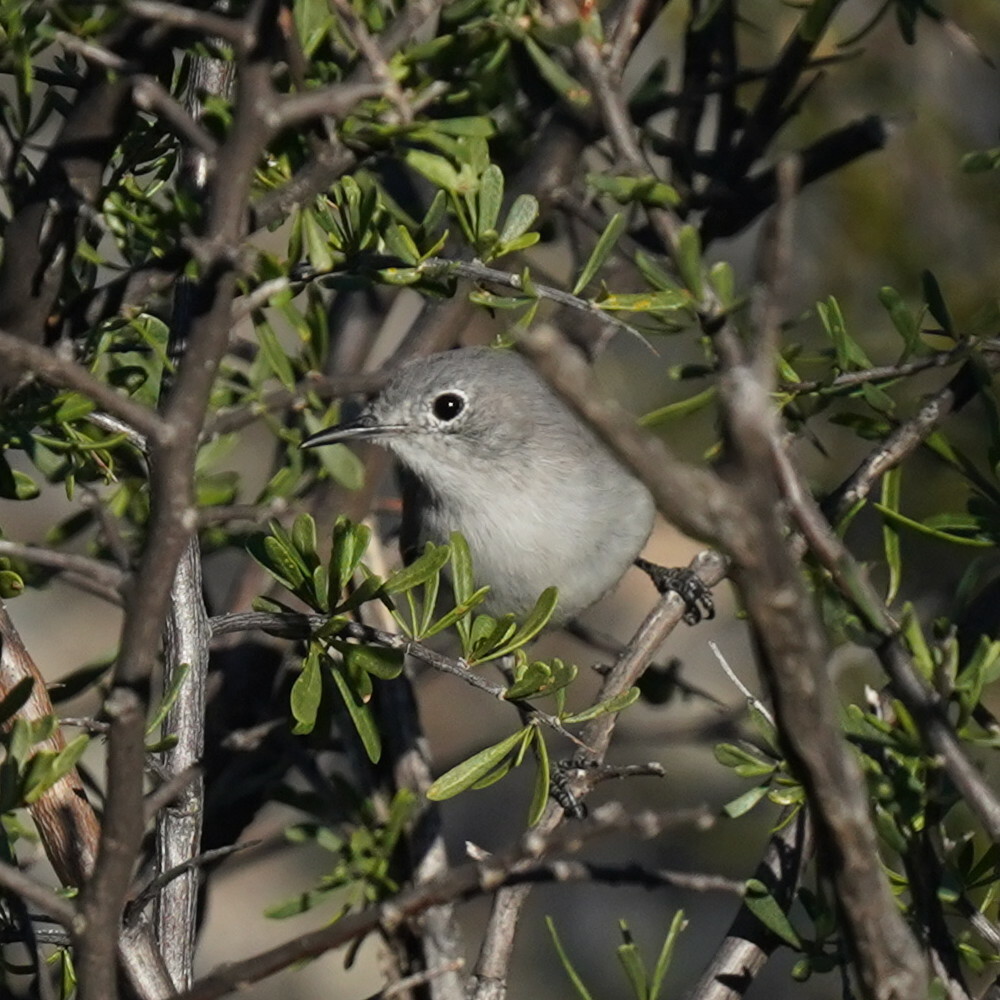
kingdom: Animalia
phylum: Chordata
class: Aves
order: Passeriformes
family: Polioptilidae
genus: Polioptila
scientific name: Polioptila caerulea
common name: Blue-gray gnatcatcher
